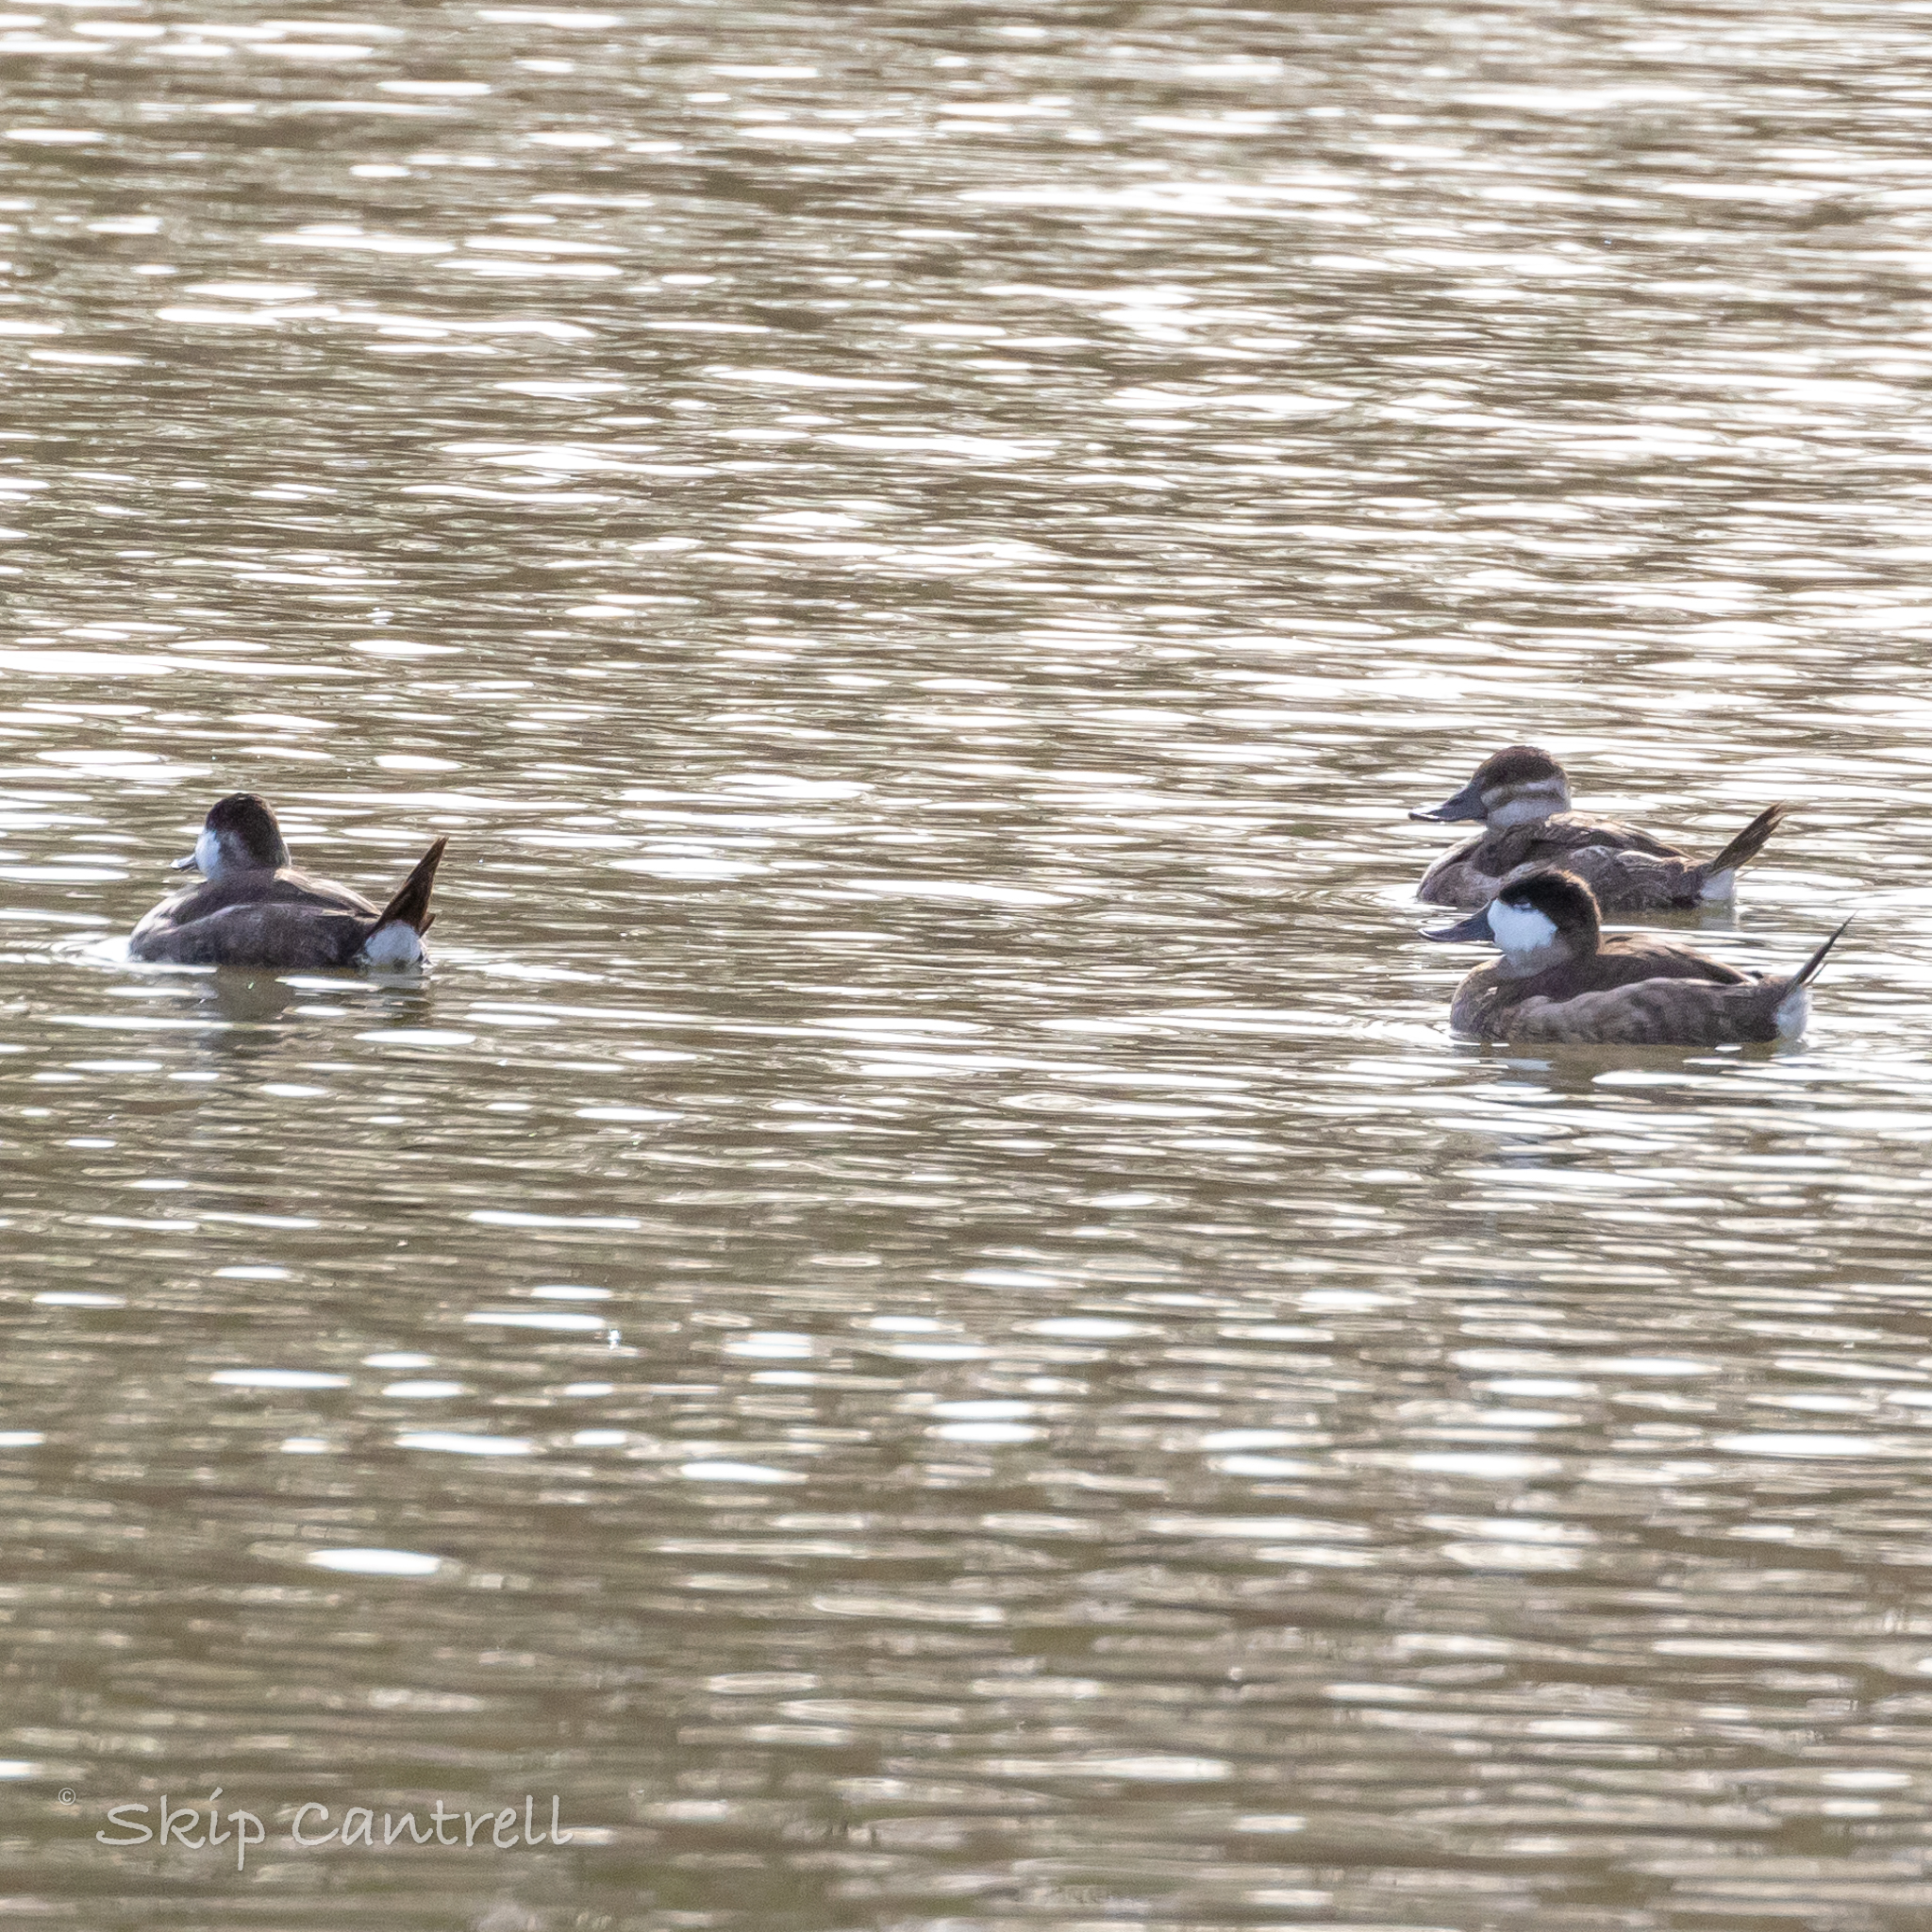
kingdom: Animalia
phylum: Chordata
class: Aves
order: Anseriformes
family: Anatidae
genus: Oxyura
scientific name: Oxyura jamaicensis
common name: Ruddy duck
